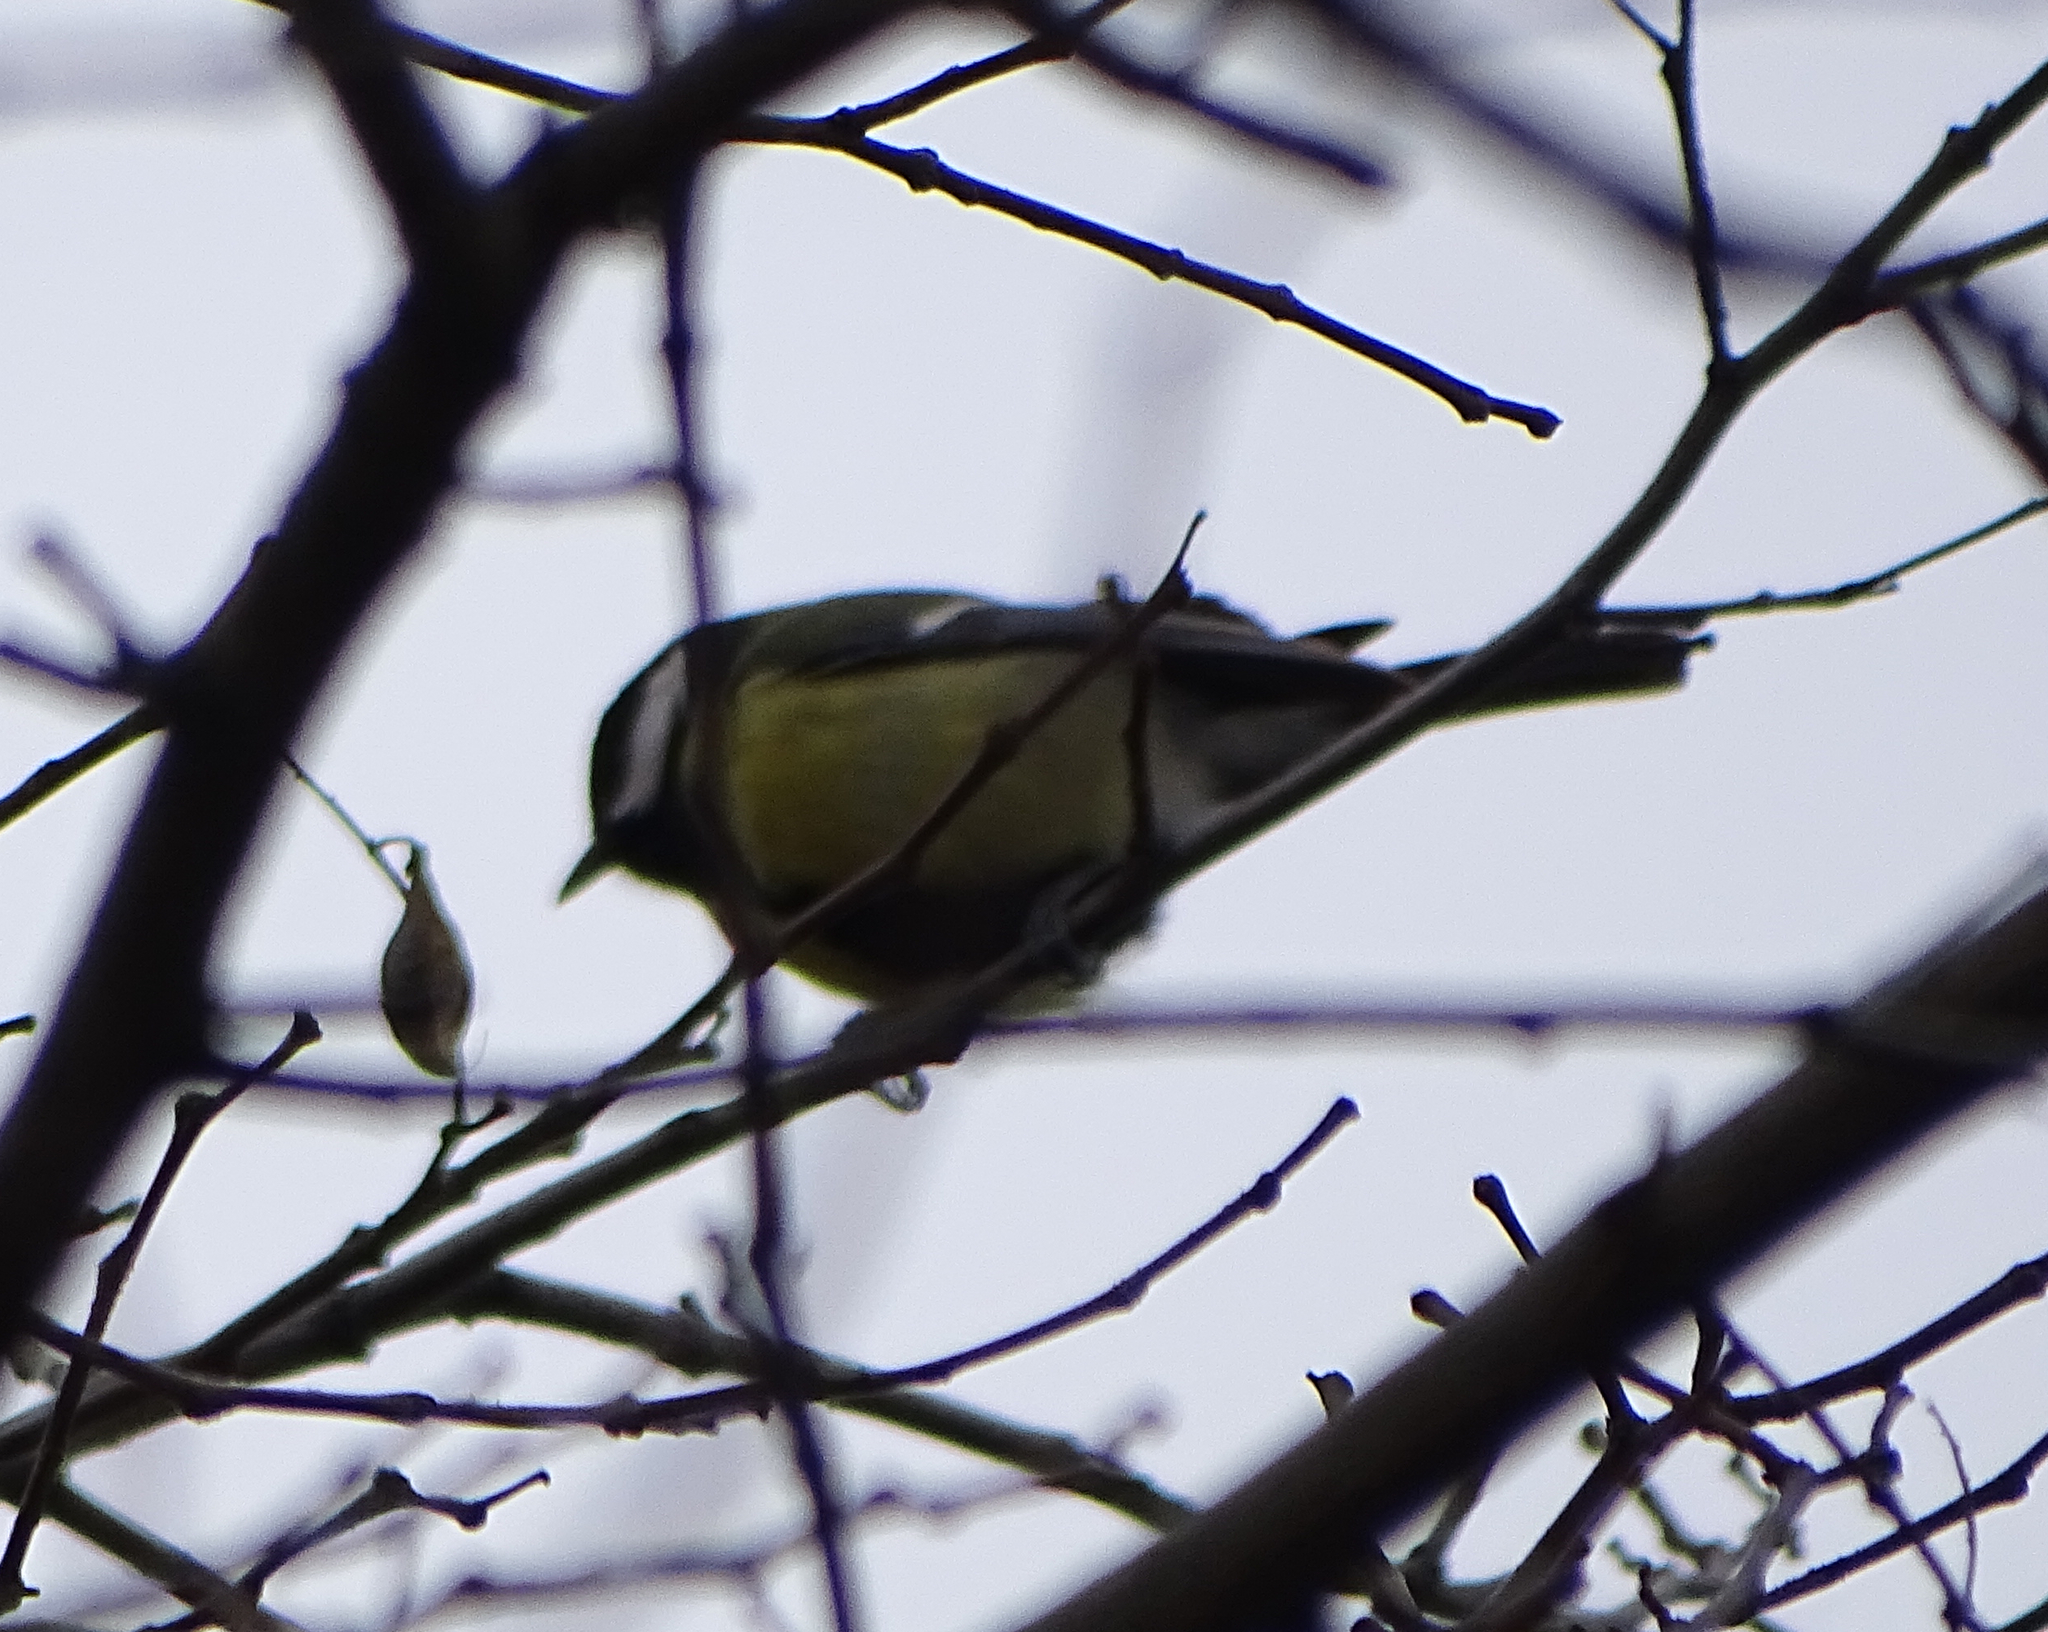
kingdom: Animalia
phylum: Chordata
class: Aves
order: Passeriformes
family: Paridae
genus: Parus
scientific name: Parus major
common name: Great tit
